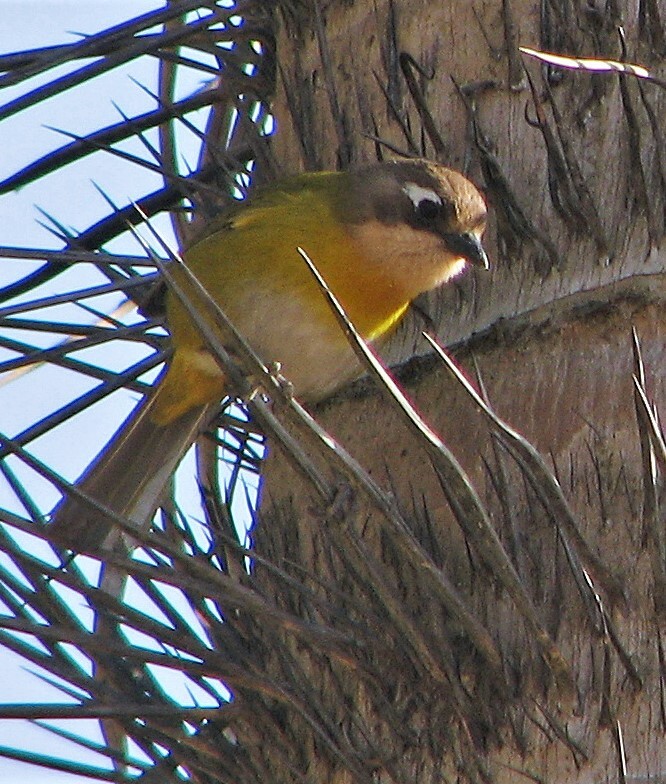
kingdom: Animalia
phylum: Chordata
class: Aves
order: Passeriformes
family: Passerellidae
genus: Chlorospingus
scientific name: Chlorospingus flavopectus
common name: Common chlorospingus
